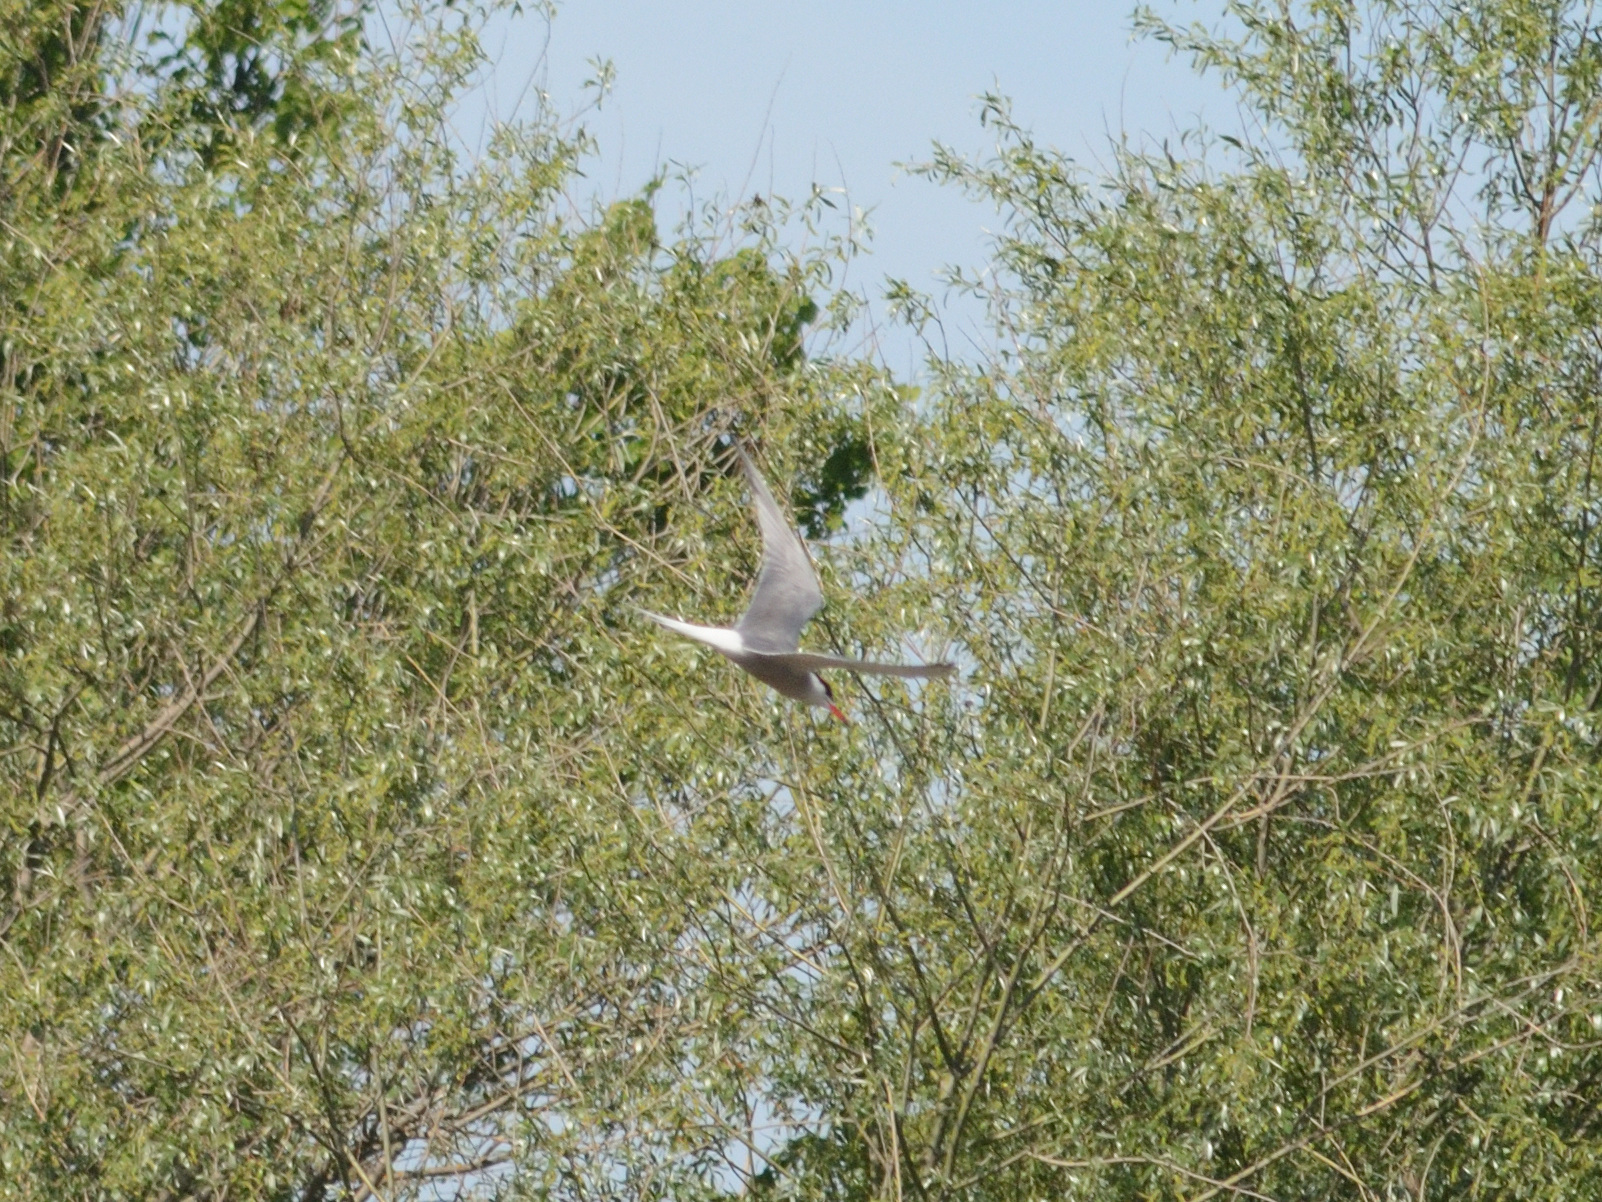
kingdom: Animalia
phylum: Chordata
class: Aves
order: Charadriiformes
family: Laridae
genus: Sterna
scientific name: Sterna hirundo
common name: Common tern
